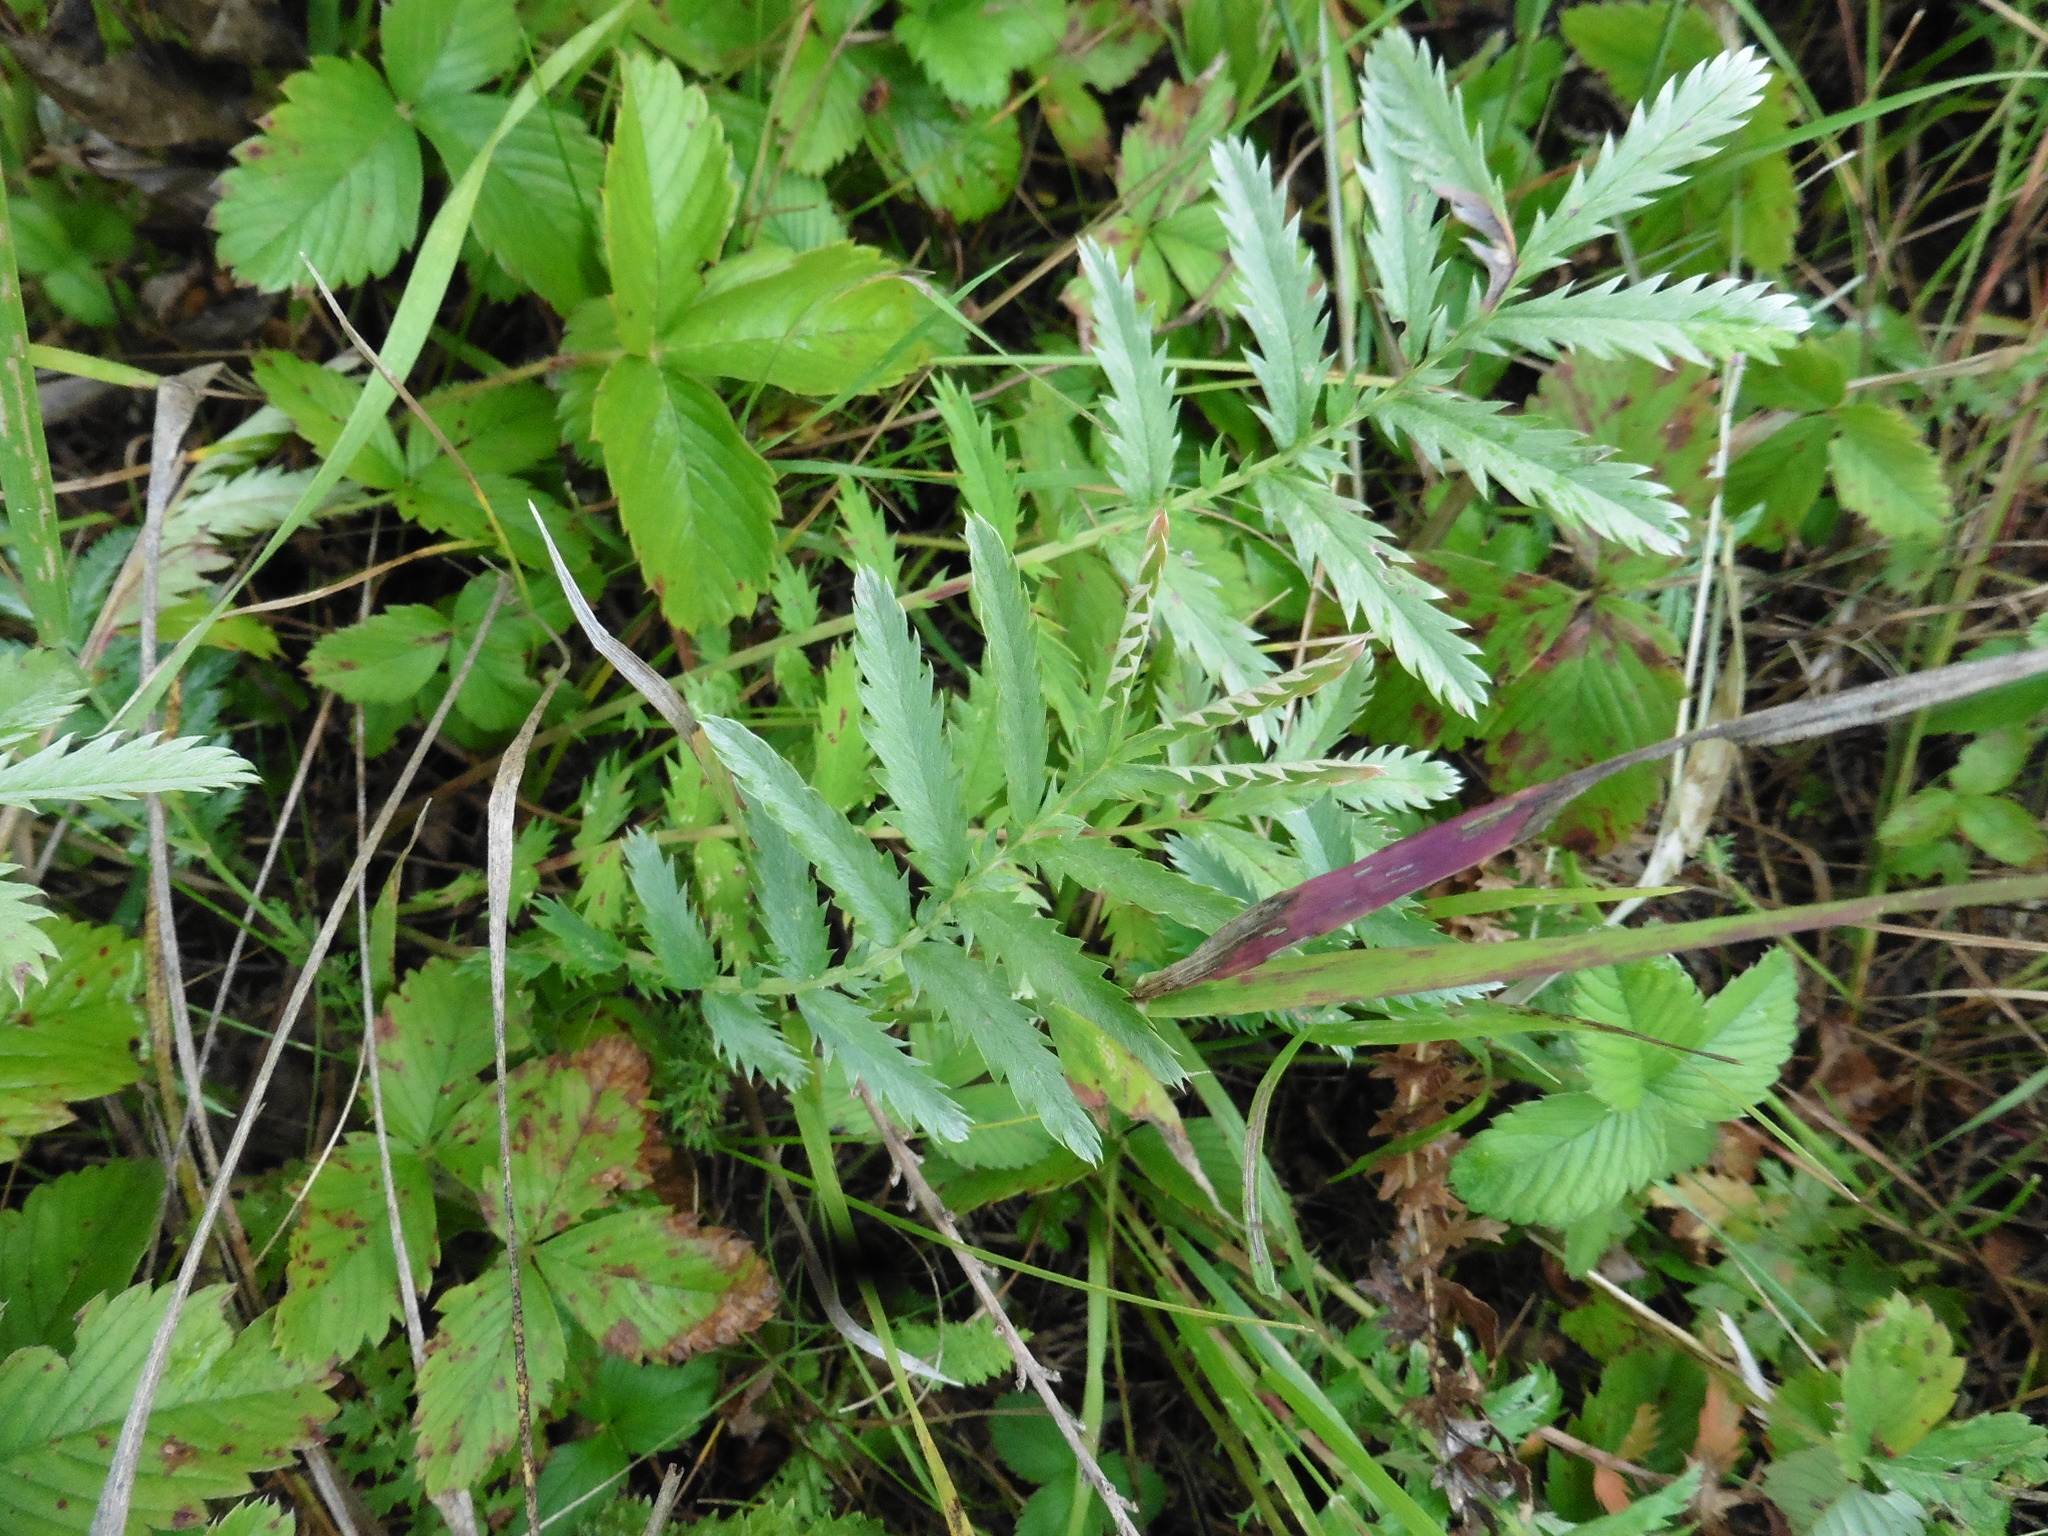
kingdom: Plantae
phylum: Tracheophyta
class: Magnoliopsida
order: Rosales
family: Rosaceae
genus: Argentina
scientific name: Argentina anserina
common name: Common silverweed
